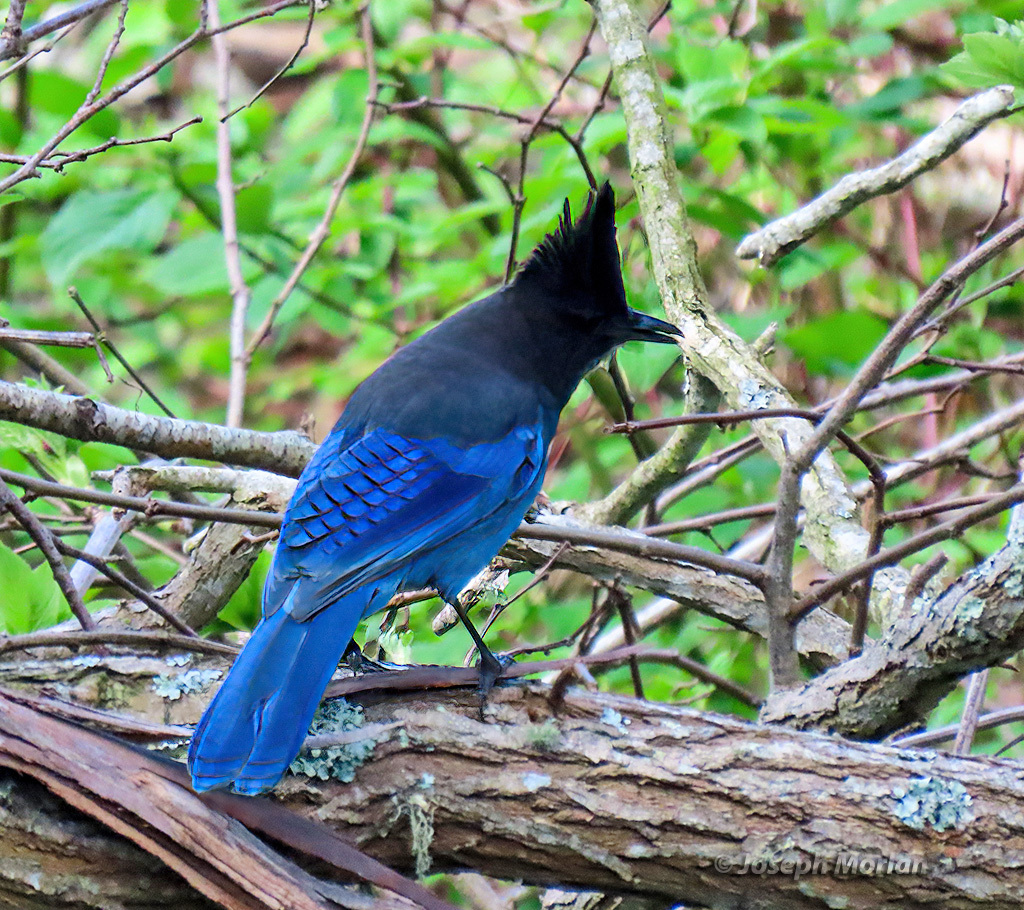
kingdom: Animalia
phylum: Chordata
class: Aves
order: Passeriformes
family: Corvidae
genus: Cyanocitta
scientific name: Cyanocitta stelleri
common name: Steller's jay
